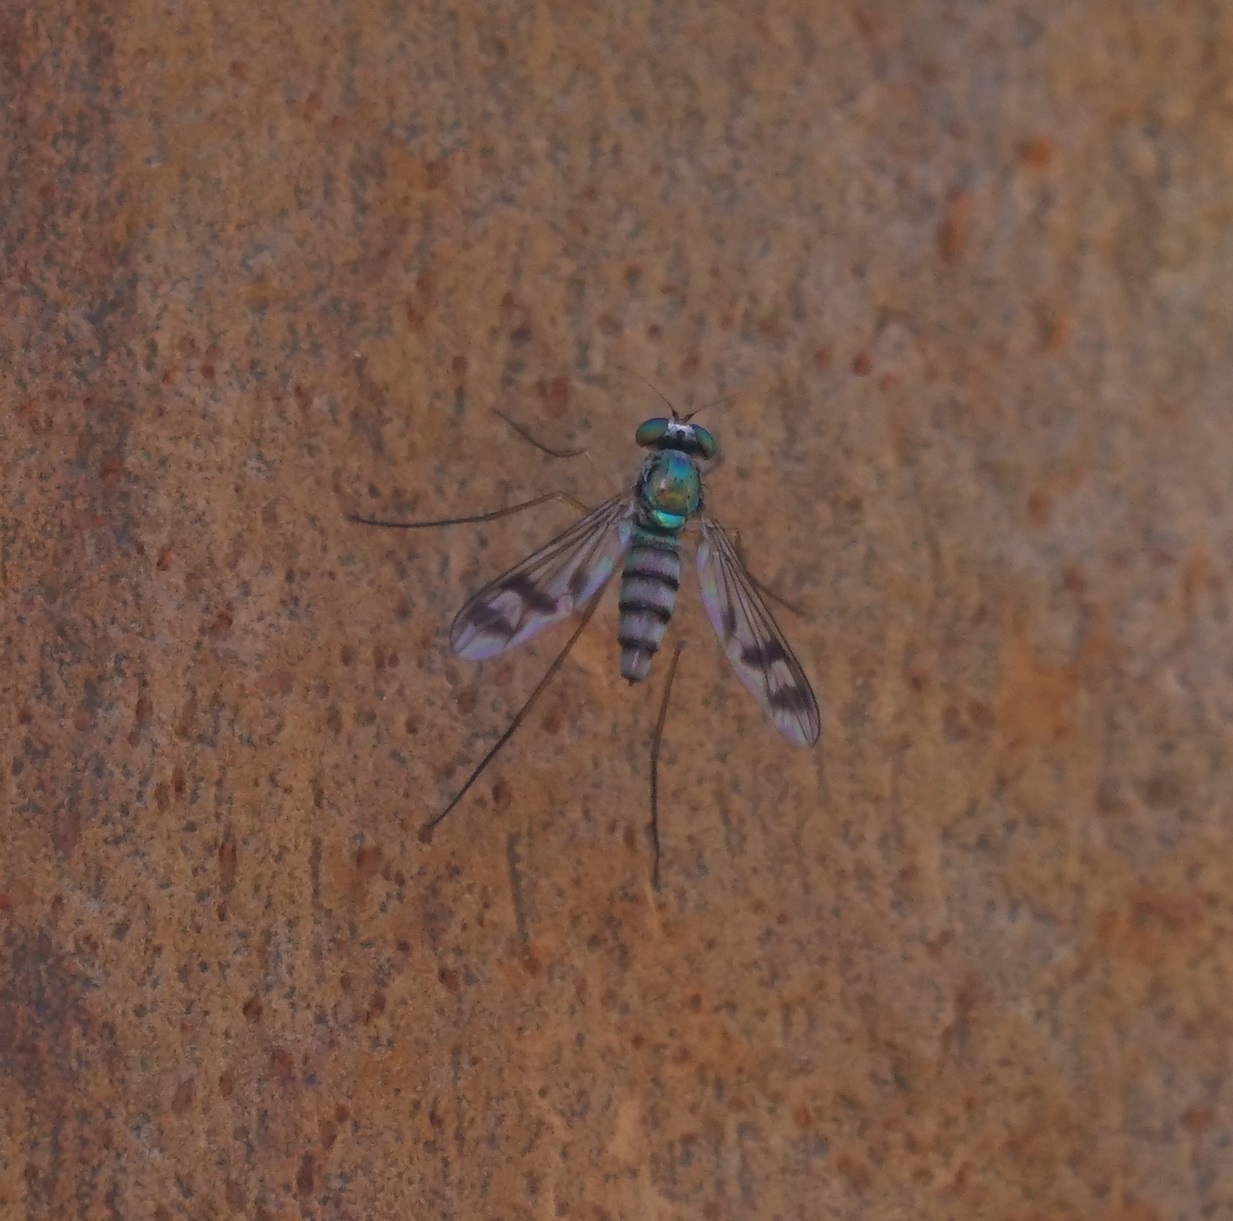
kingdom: Animalia
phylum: Arthropoda
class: Insecta
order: Diptera
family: Dolichopodidae
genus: Heteropsilopus
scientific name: Heteropsilopus squamifer
